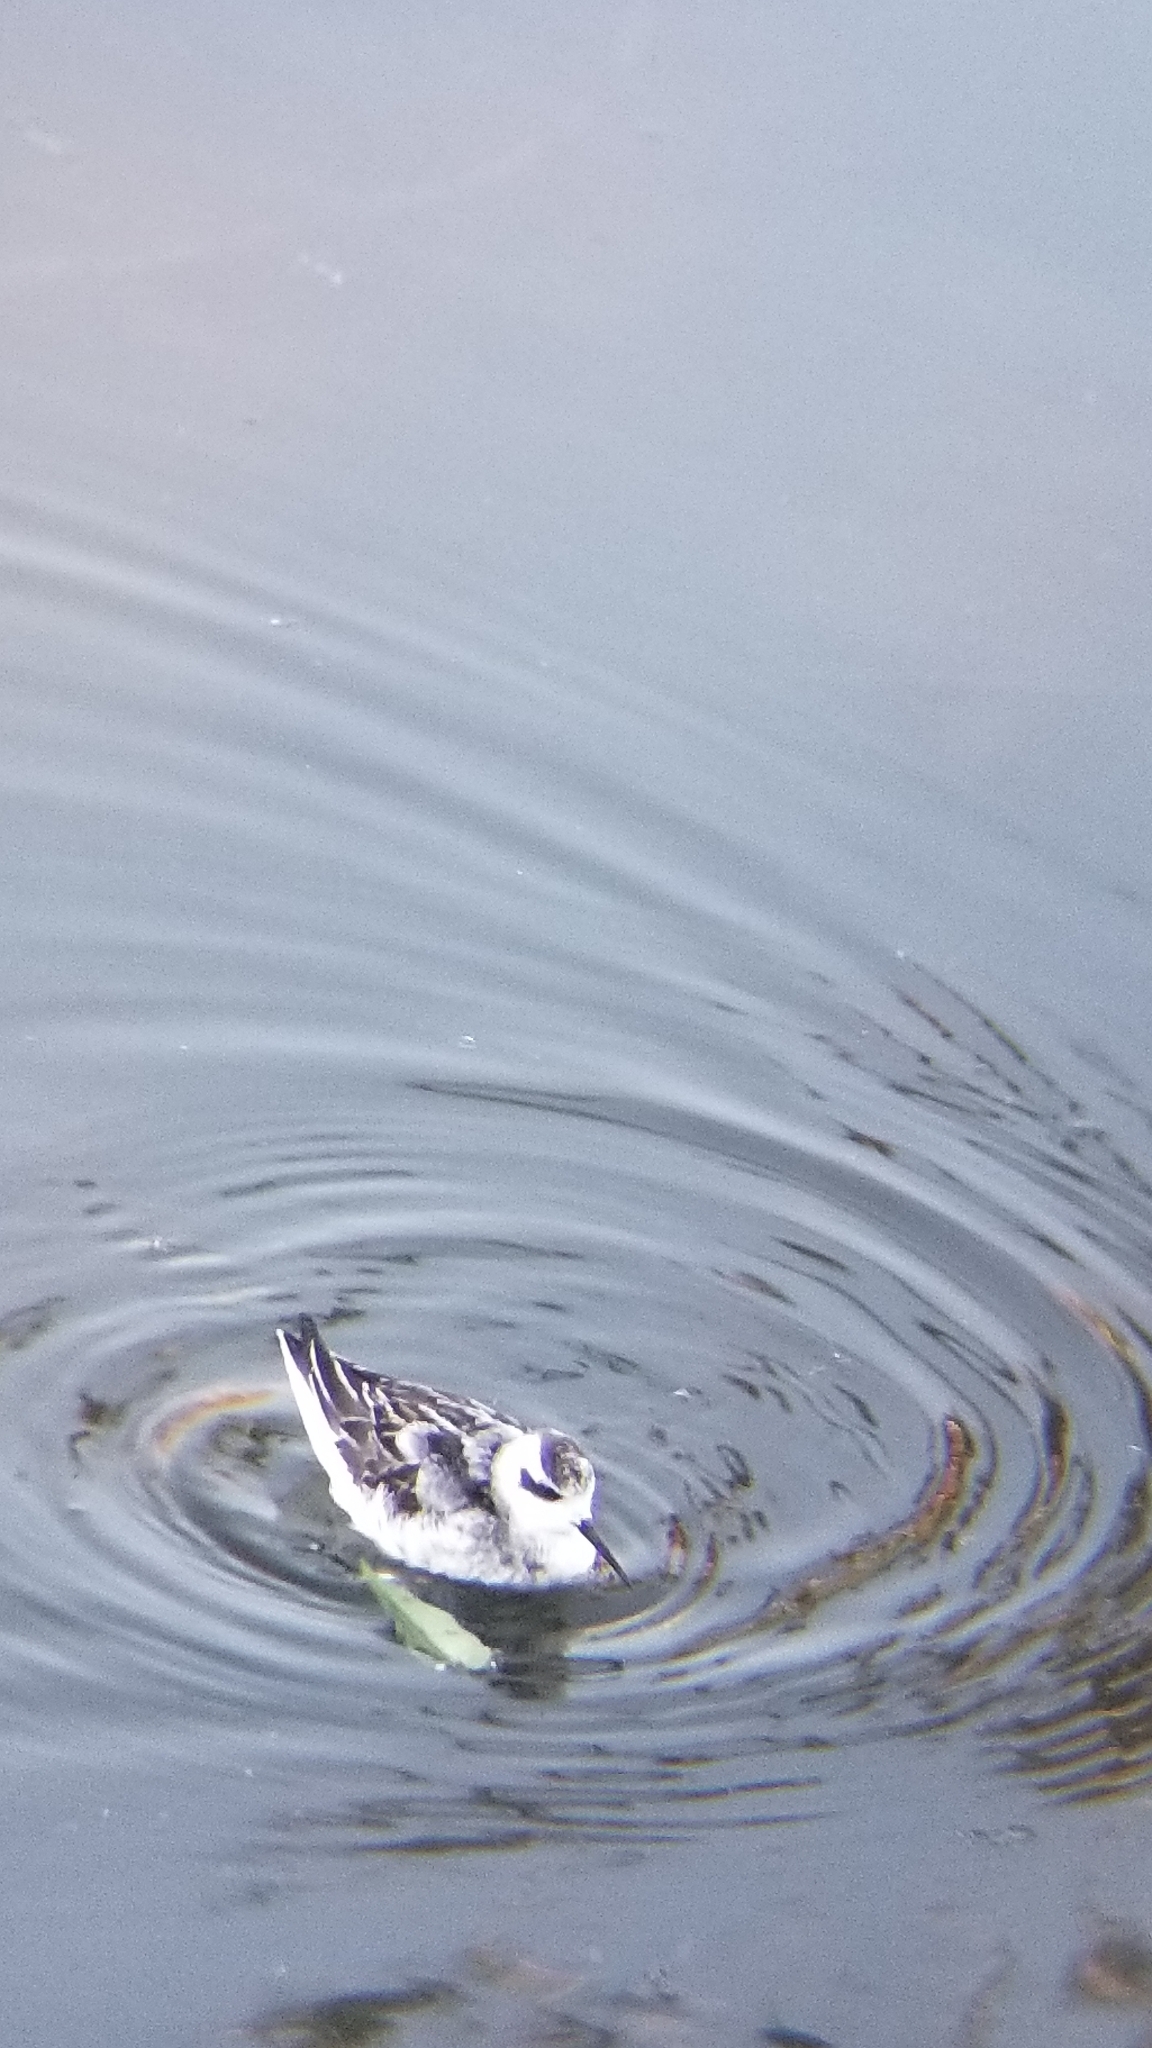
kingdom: Animalia
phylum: Chordata
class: Aves
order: Charadriiformes
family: Scolopacidae
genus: Phalaropus
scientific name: Phalaropus lobatus
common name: Red-necked phalarope
